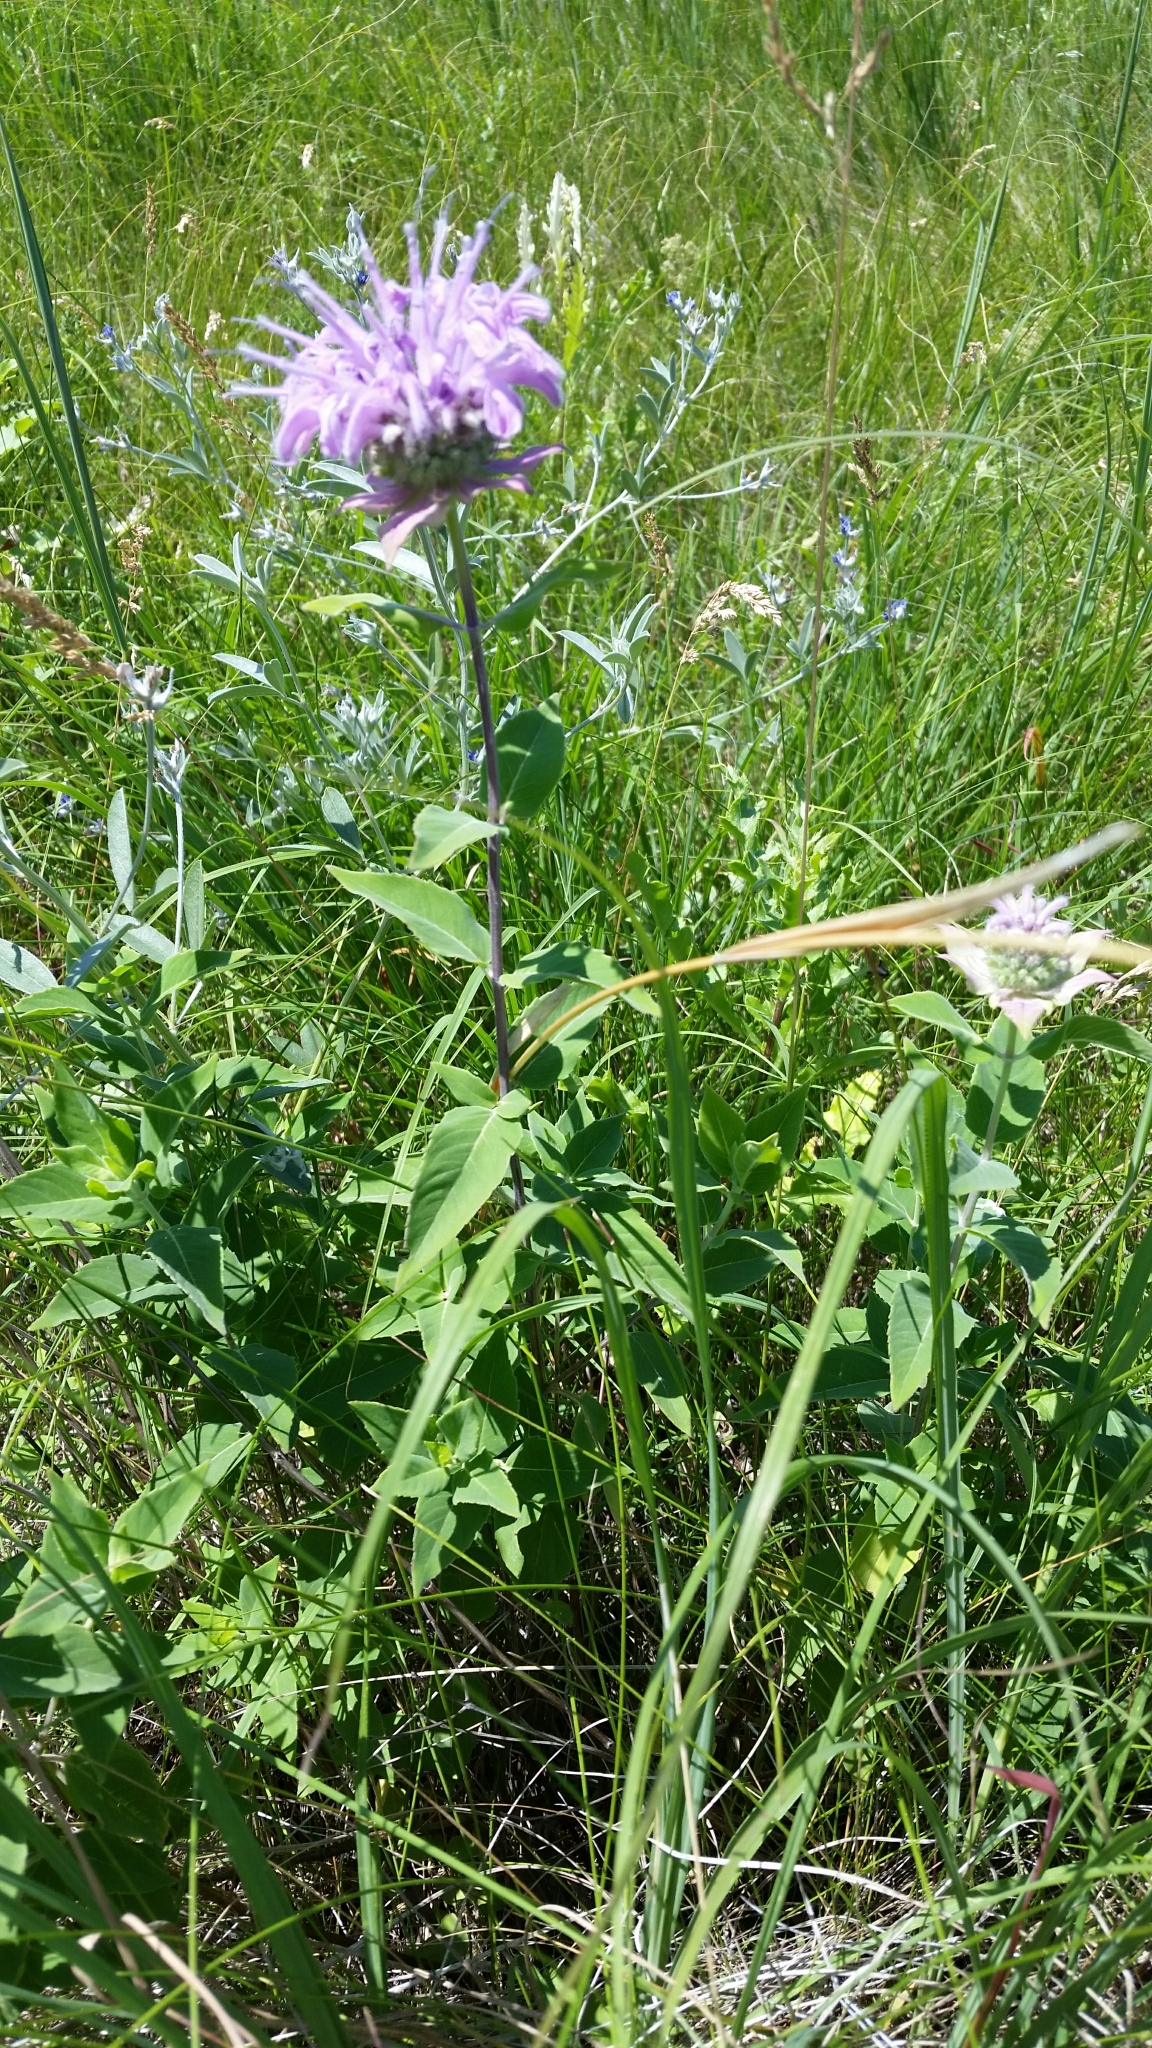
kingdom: Plantae
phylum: Tracheophyta
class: Magnoliopsida
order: Lamiales
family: Lamiaceae
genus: Monarda
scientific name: Monarda fistulosa
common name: Purple beebalm
